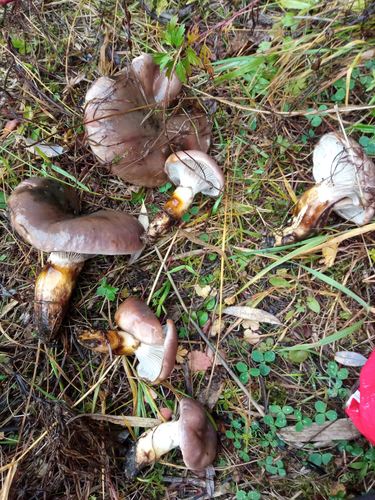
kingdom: Fungi
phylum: Basidiomycota
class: Agaricomycetes
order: Boletales
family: Gomphidiaceae
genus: Gomphidius
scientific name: Gomphidius glutinosus
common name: Slimy spike
